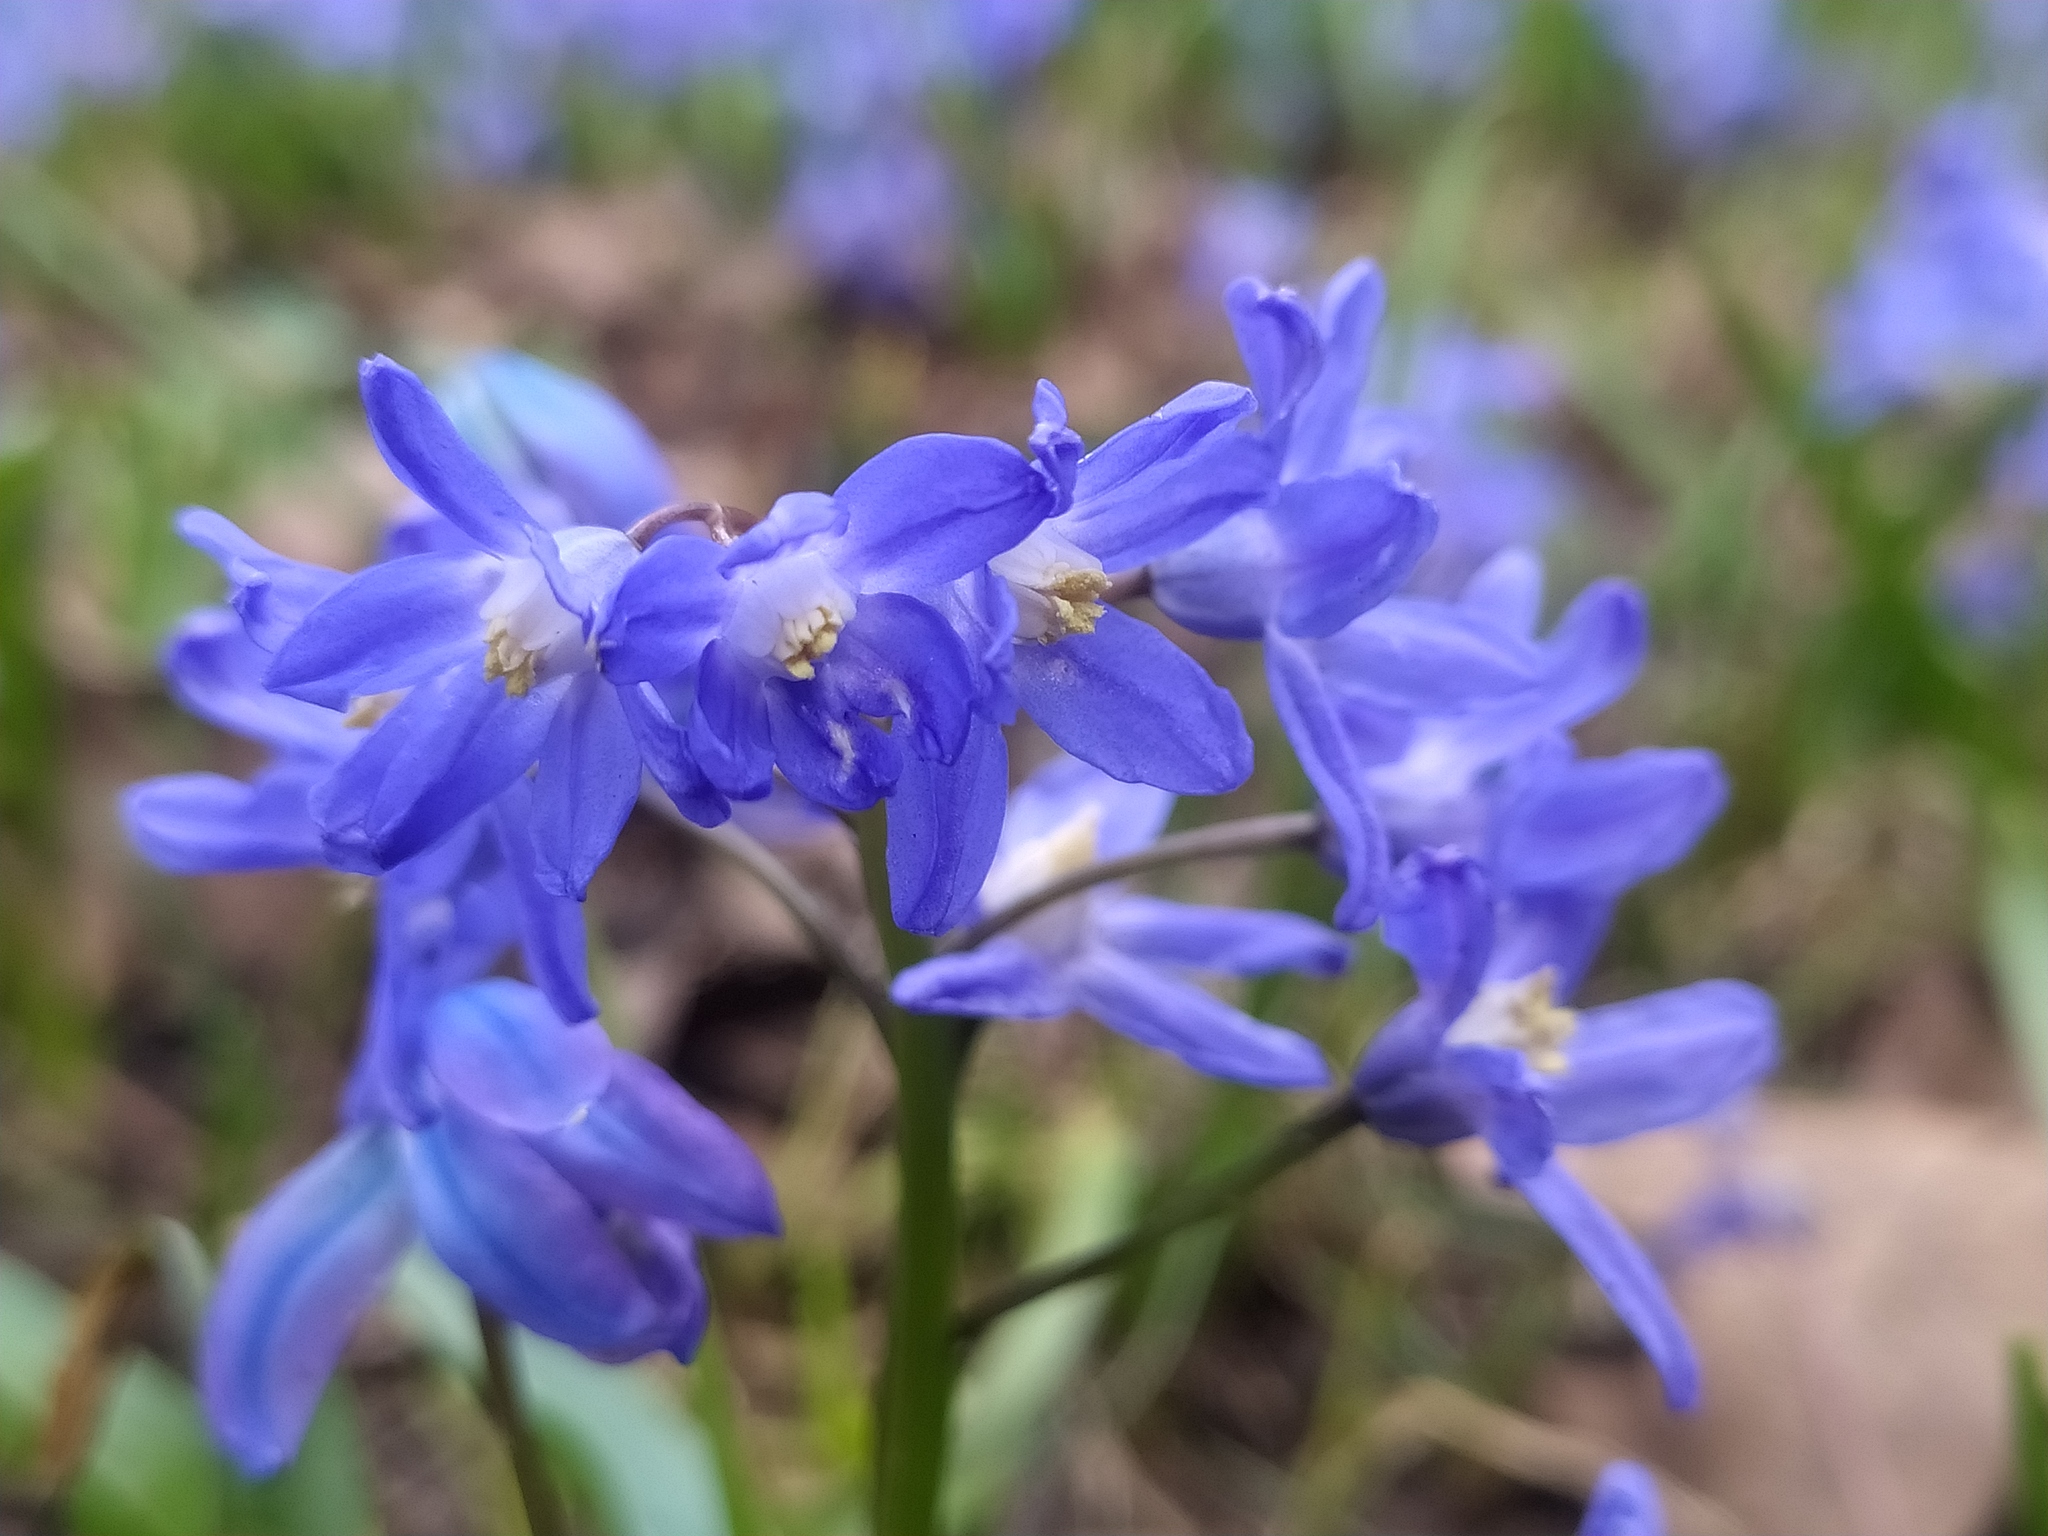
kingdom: Plantae
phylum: Tracheophyta
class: Liliopsida
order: Asparagales
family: Asparagaceae
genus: Scilla
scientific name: Scilla sardensis
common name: Lesser glory-of-the-snow
